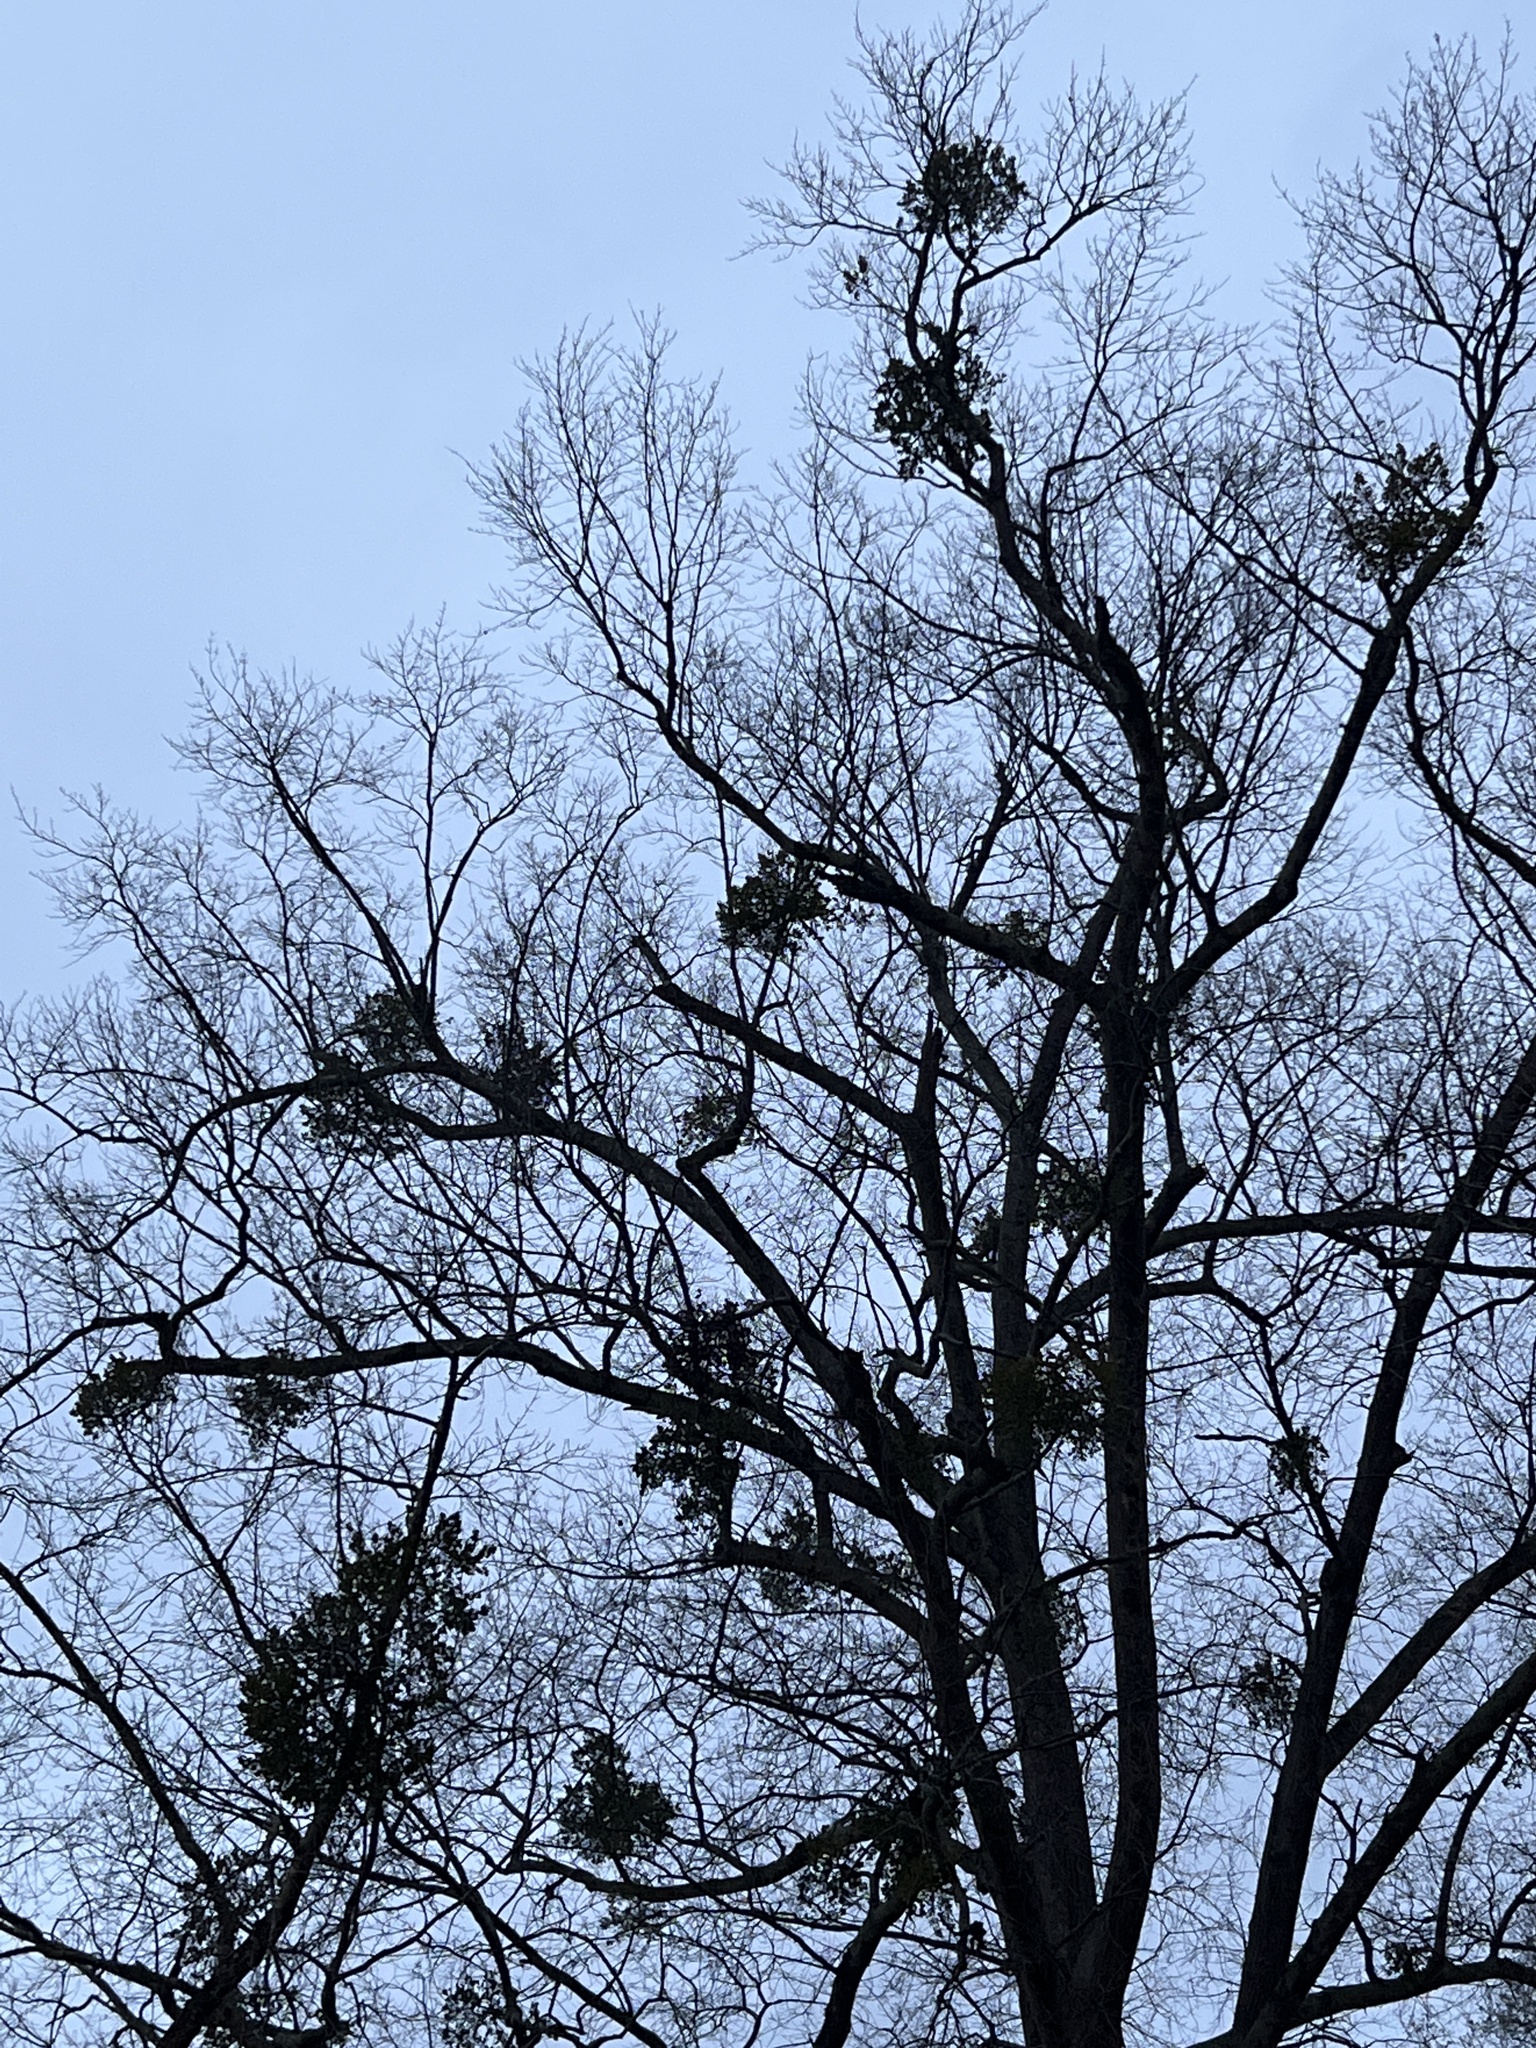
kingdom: Plantae
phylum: Tracheophyta
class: Magnoliopsida
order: Santalales
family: Viscaceae
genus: Phoradendron
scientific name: Phoradendron leucarpum
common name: Pacific mistletoe
